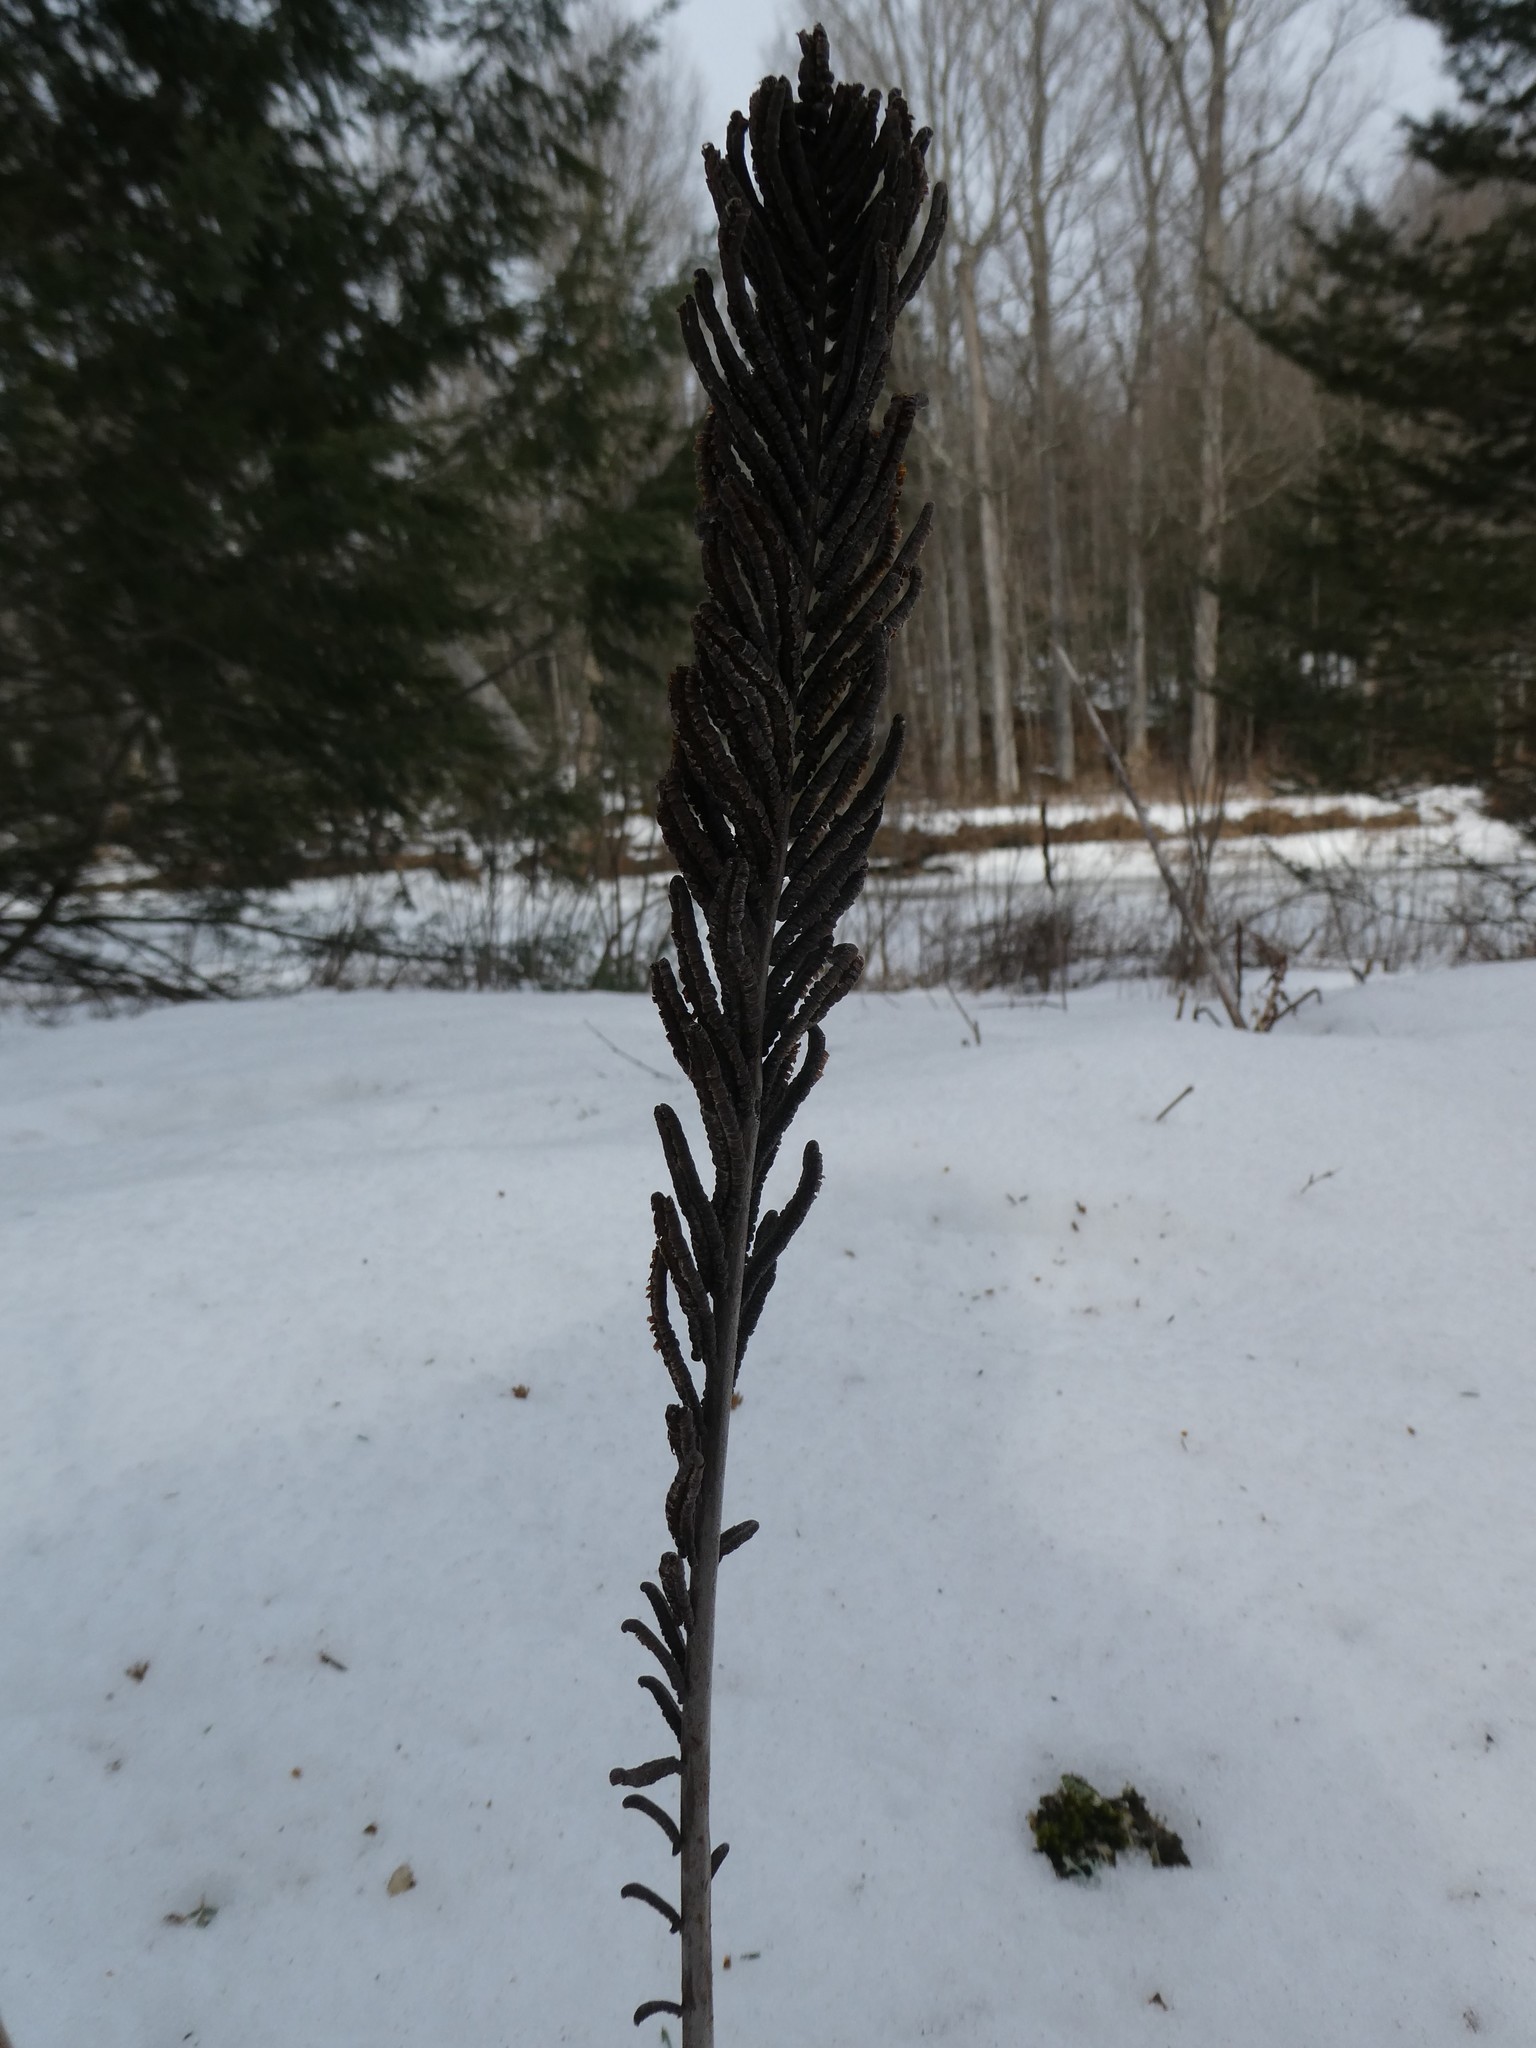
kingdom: Plantae
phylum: Tracheophyta
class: Polypodiopsida
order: Polypodiales
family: Onocleaceae
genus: Matteuccia
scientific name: Matteuccia struthiopteris
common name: Ostrich fern
